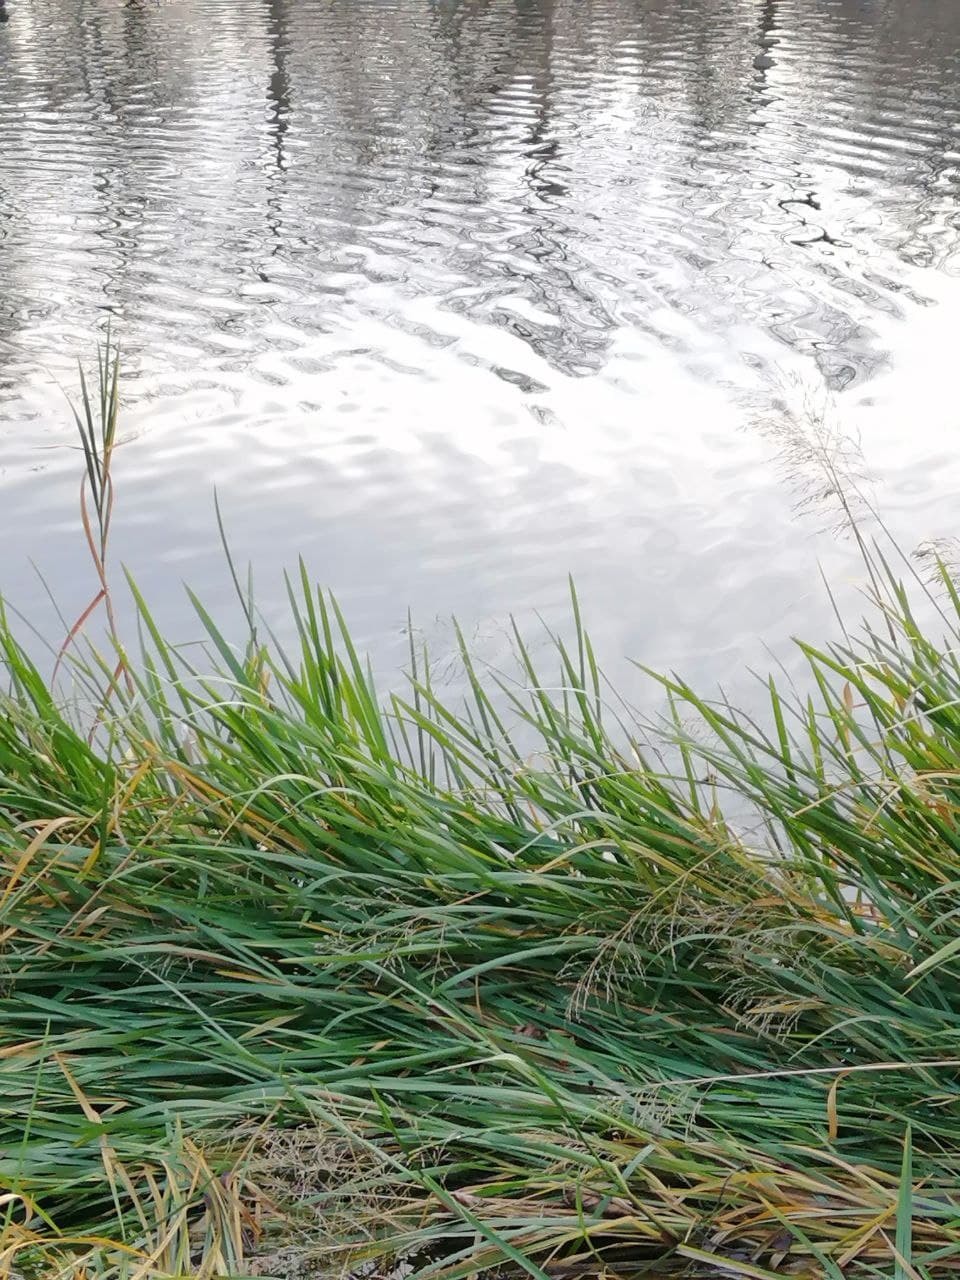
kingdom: Plantae
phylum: Tracheophyta
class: Liliopsida
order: Poales
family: Poaceae
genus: Glyceria
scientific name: Glyceria maxima
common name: Reed mannagrass
